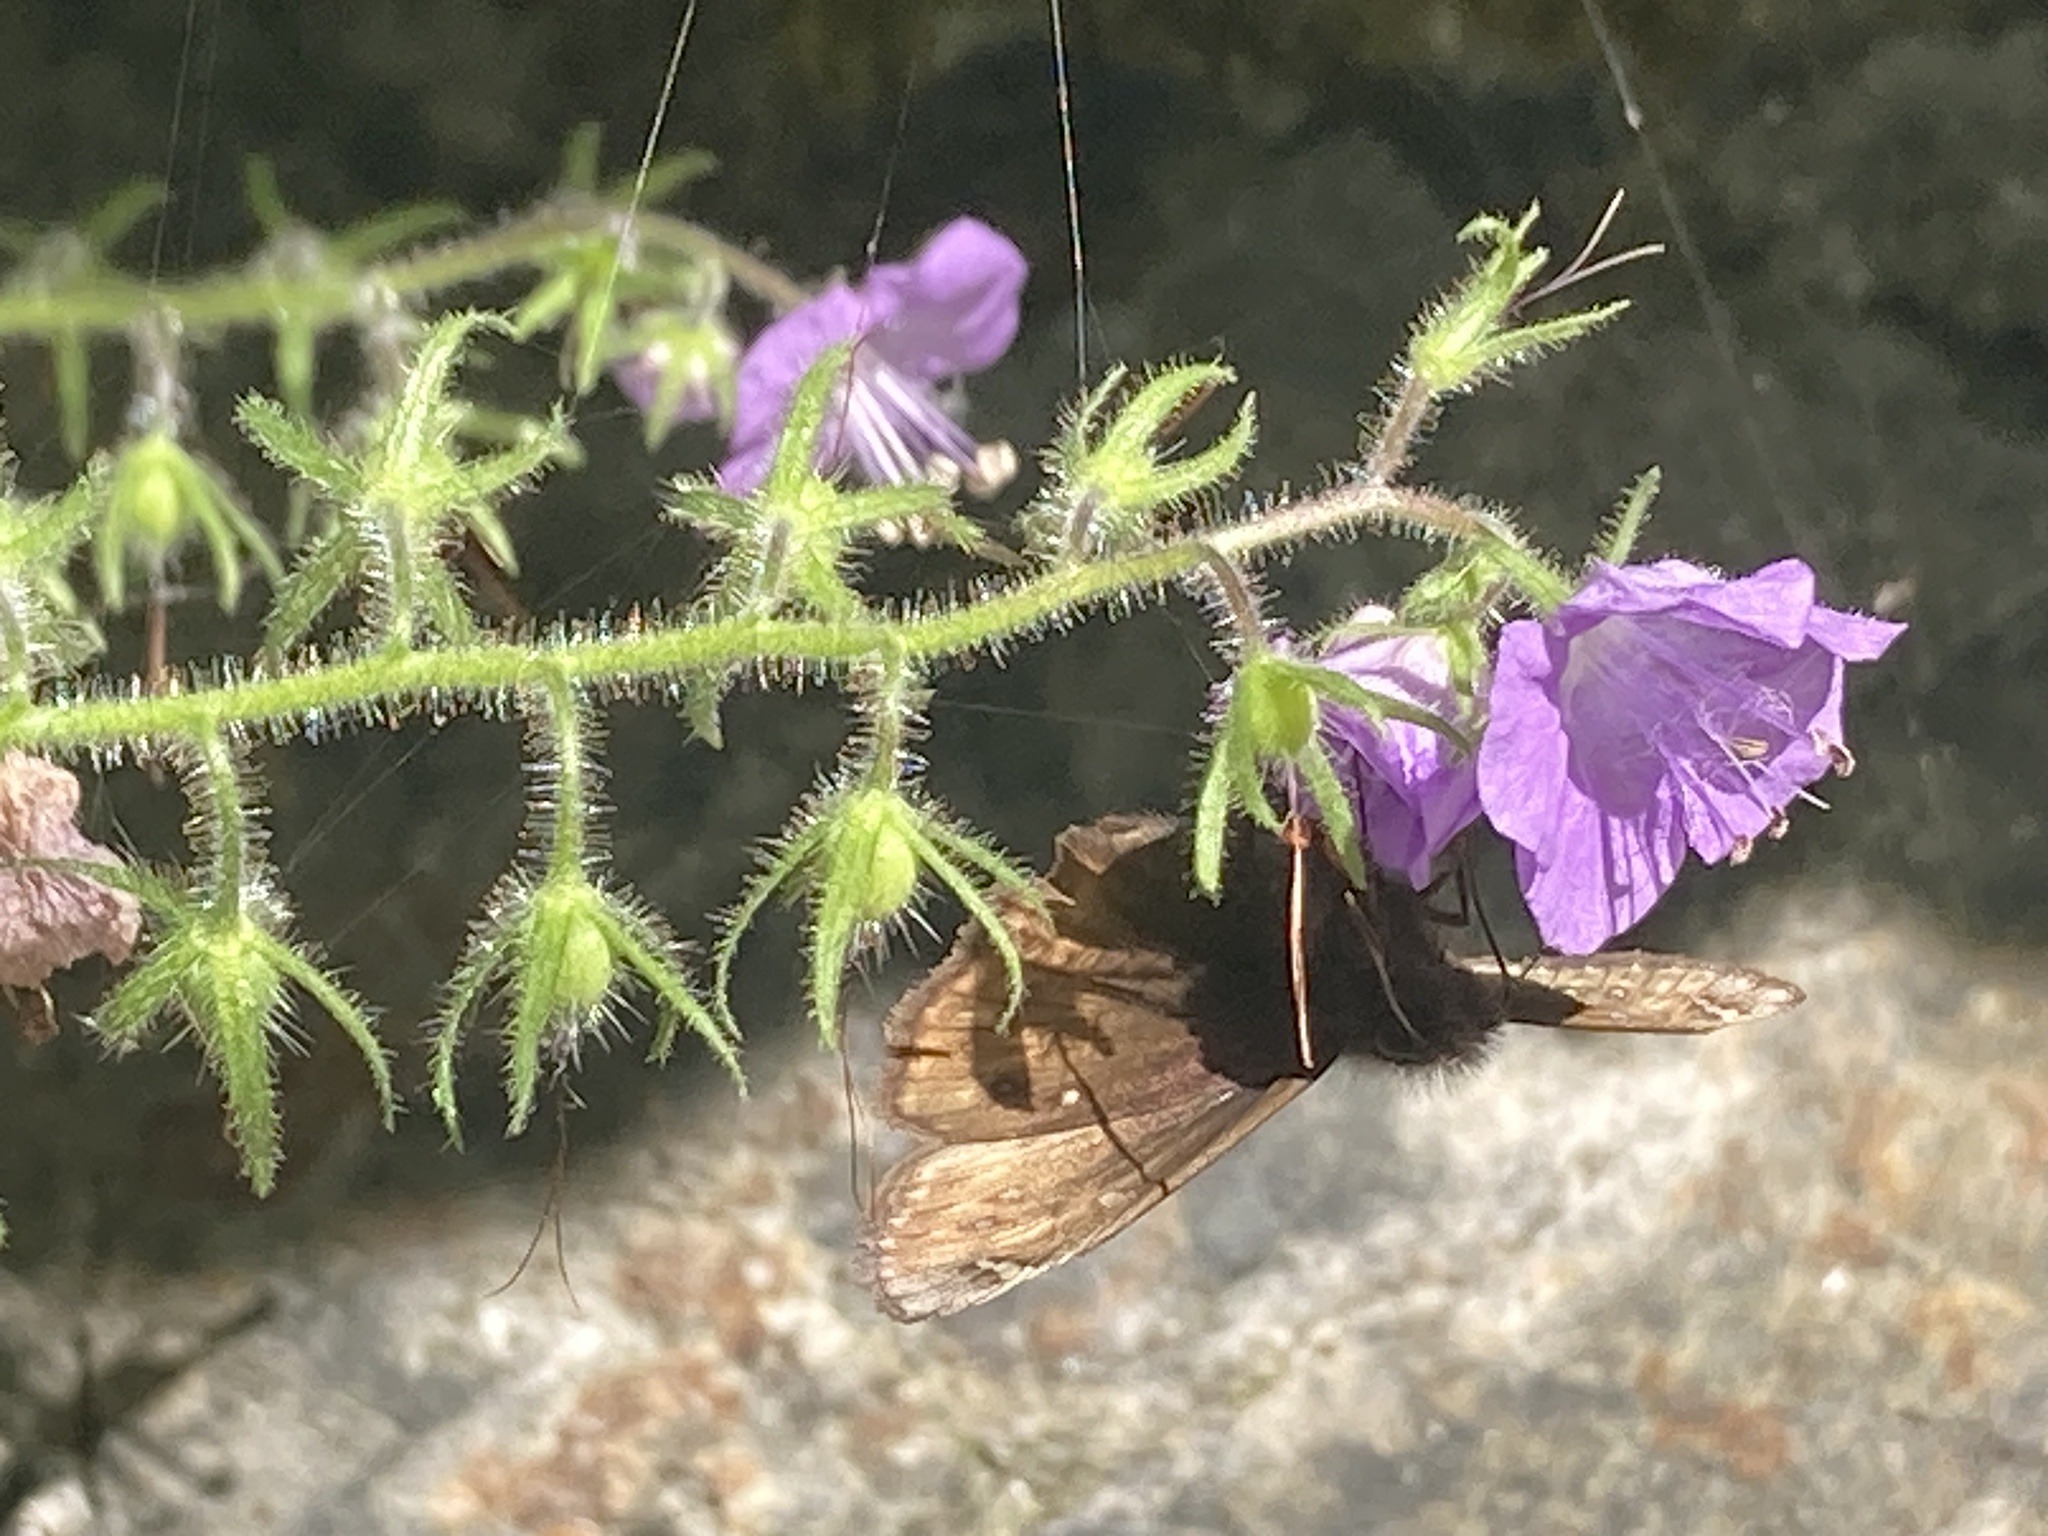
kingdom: Plantae
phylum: Tracheophyta
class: Magnoliopsida
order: Boraginales
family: Hydrophyllaceae
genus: Phacelia
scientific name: Phacelia bipinnatifida
